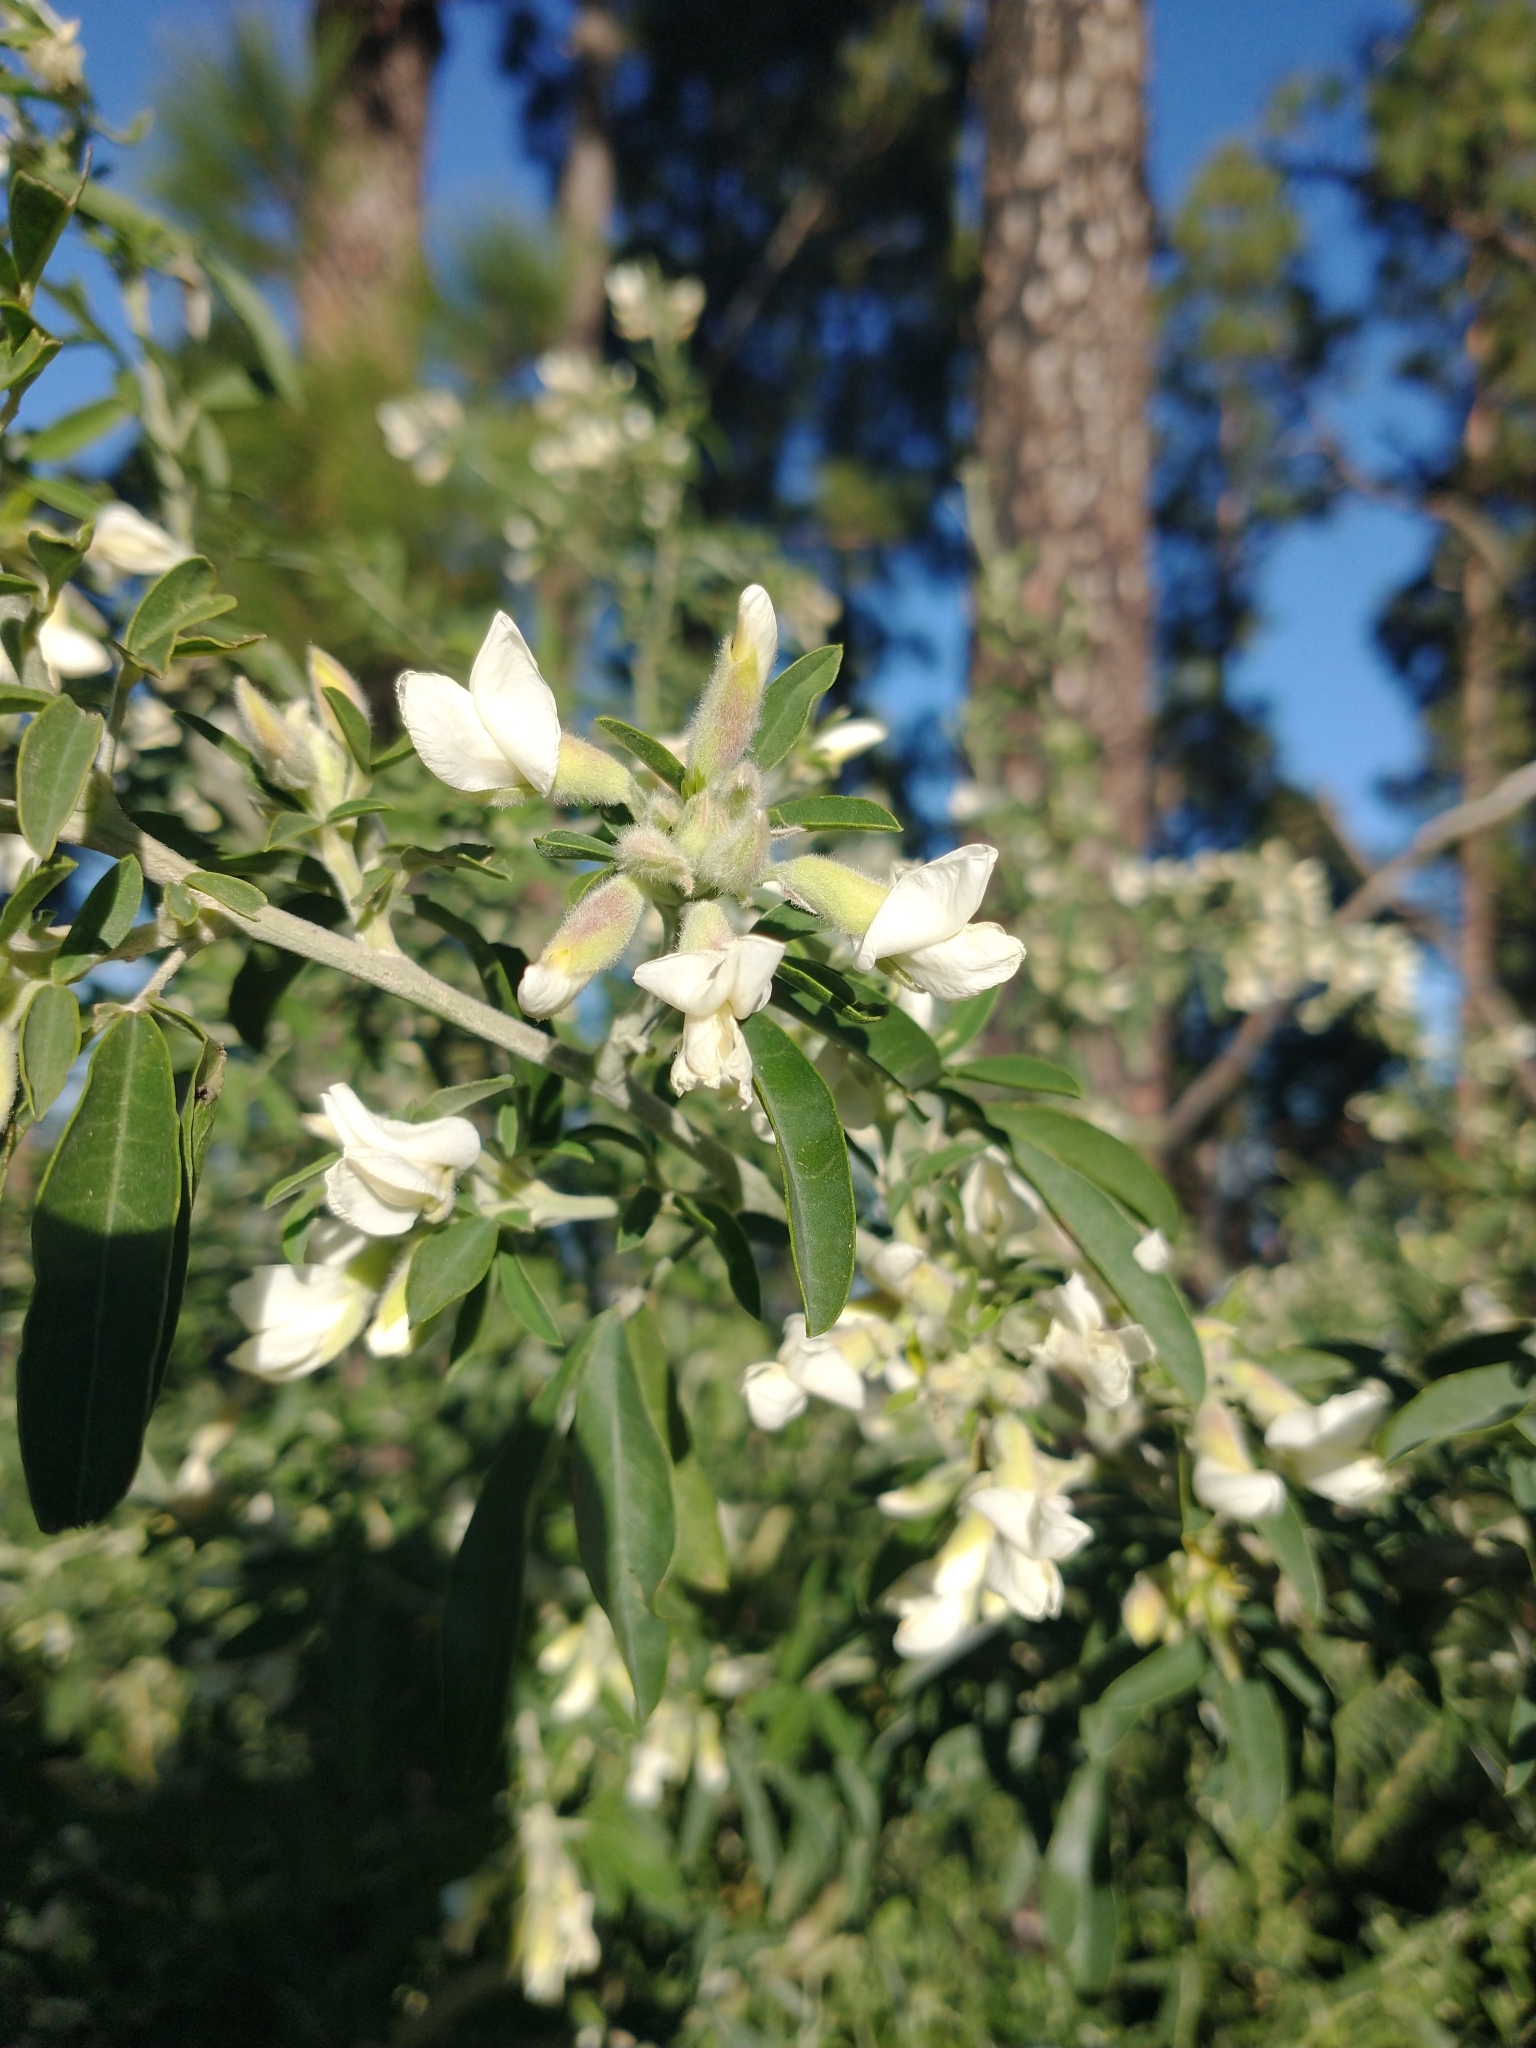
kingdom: Plantae
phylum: Tracheophyta
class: Magnoliopsida
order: Fabales
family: Fabaceae
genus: Chamaecytisus
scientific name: Chamaecytisus prolifer
